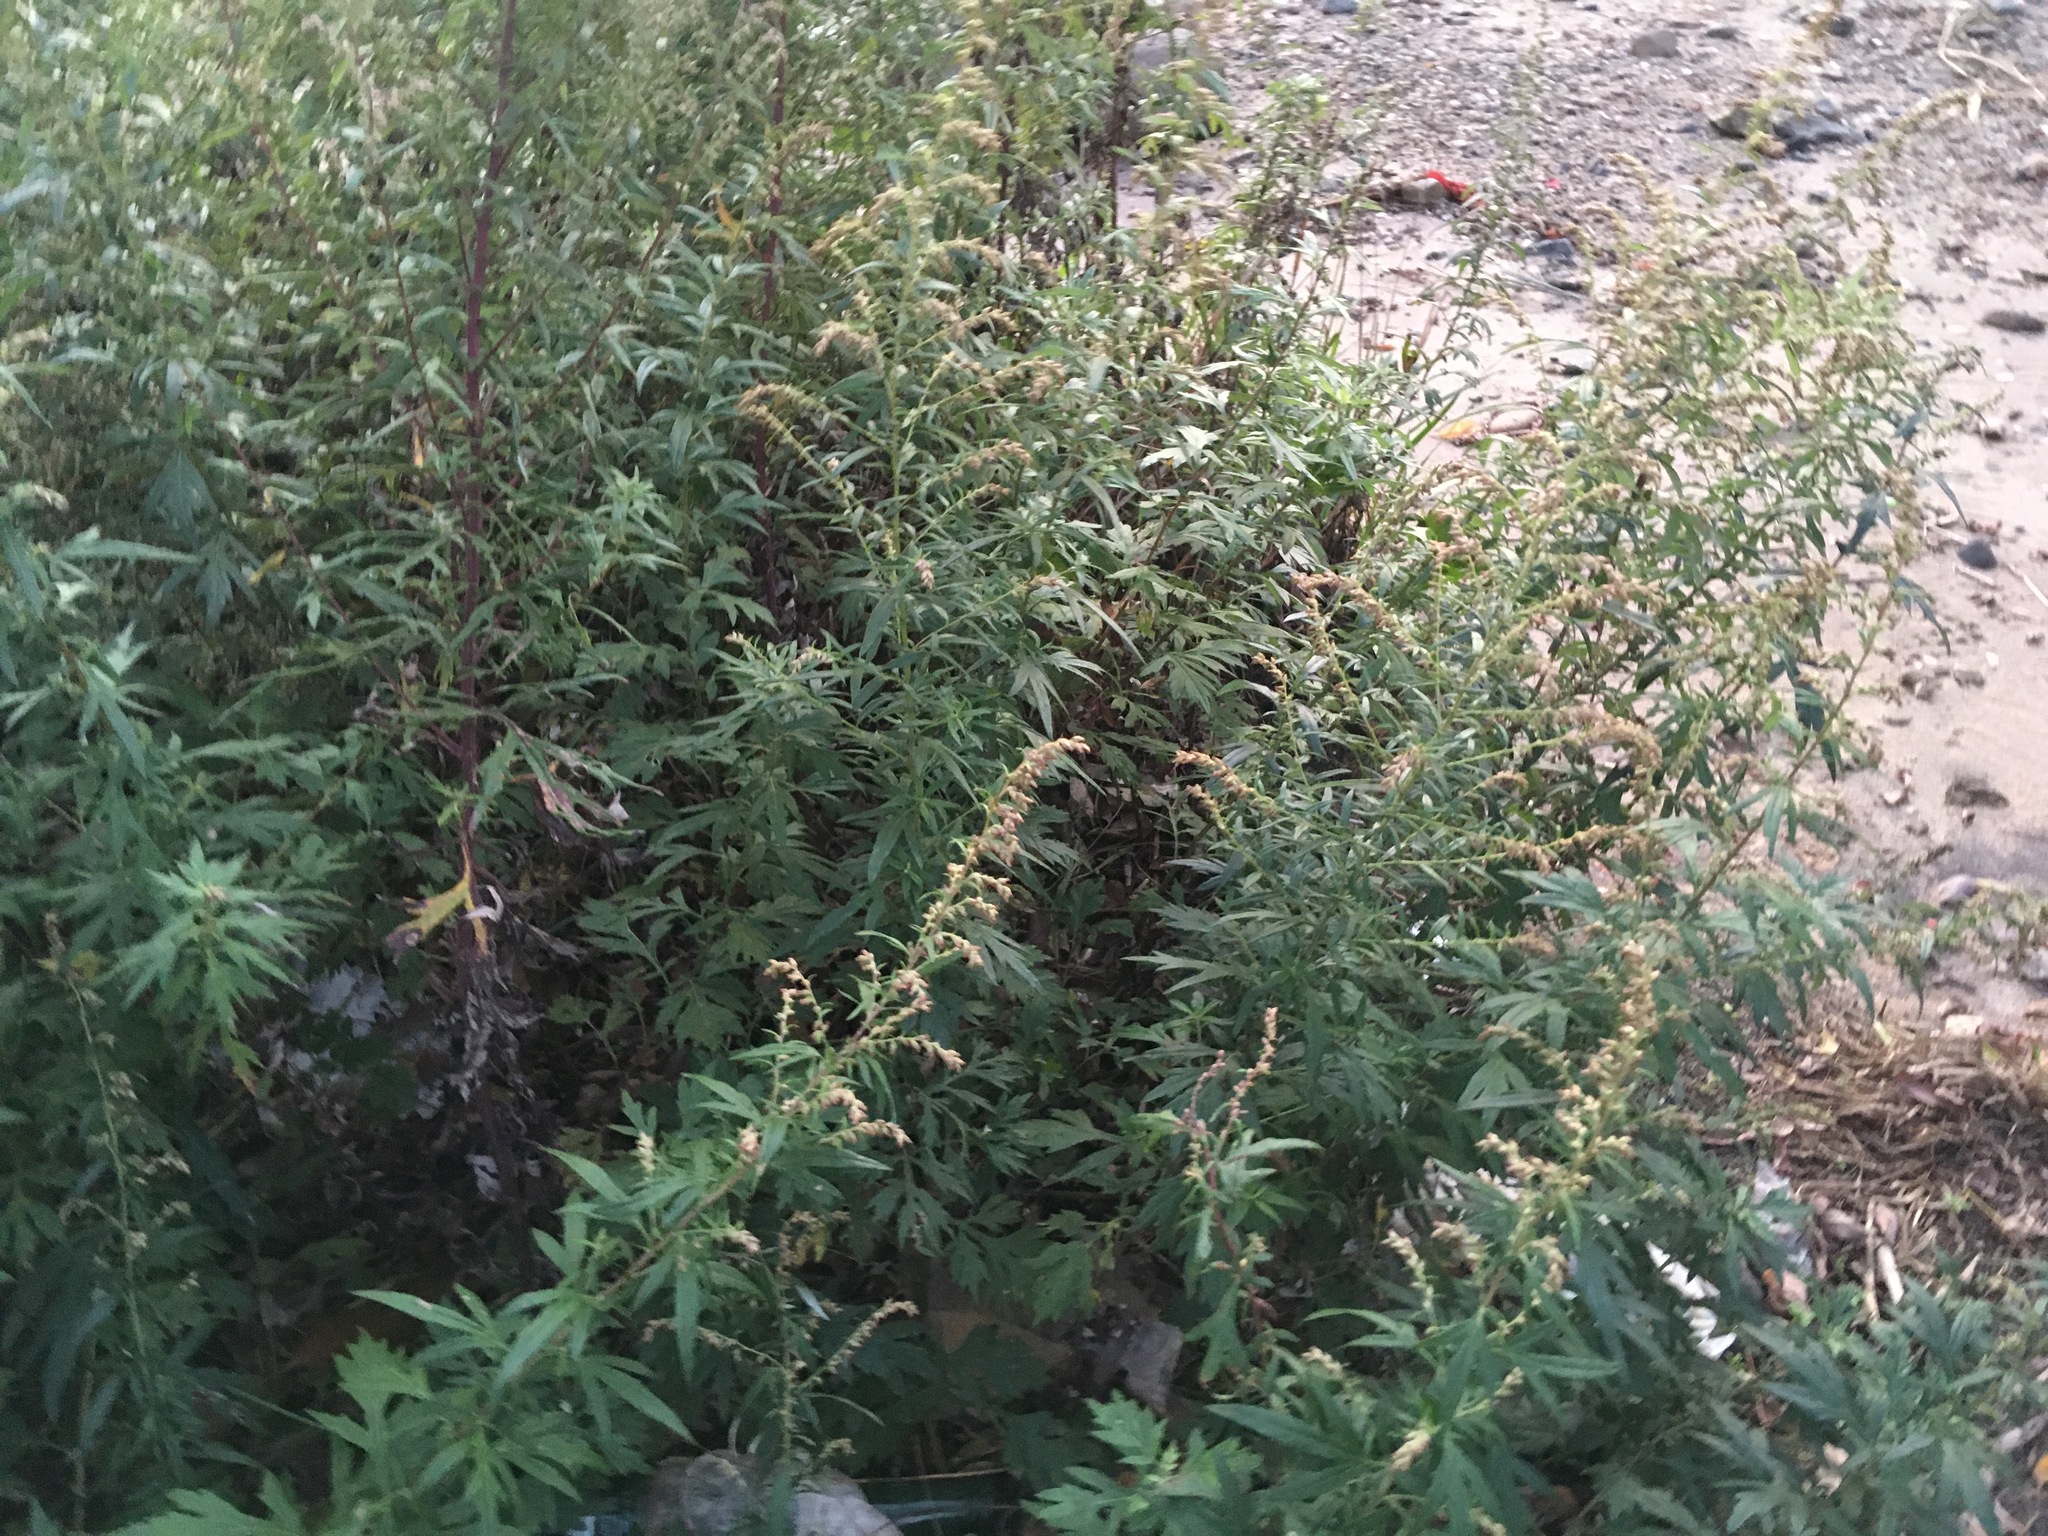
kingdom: Plantae
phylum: Tracheophyta
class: Magnoliopsida
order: Asterales
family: Asteraceae
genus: Artemisia
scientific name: Artemisia vulgaris
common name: Mugwort
